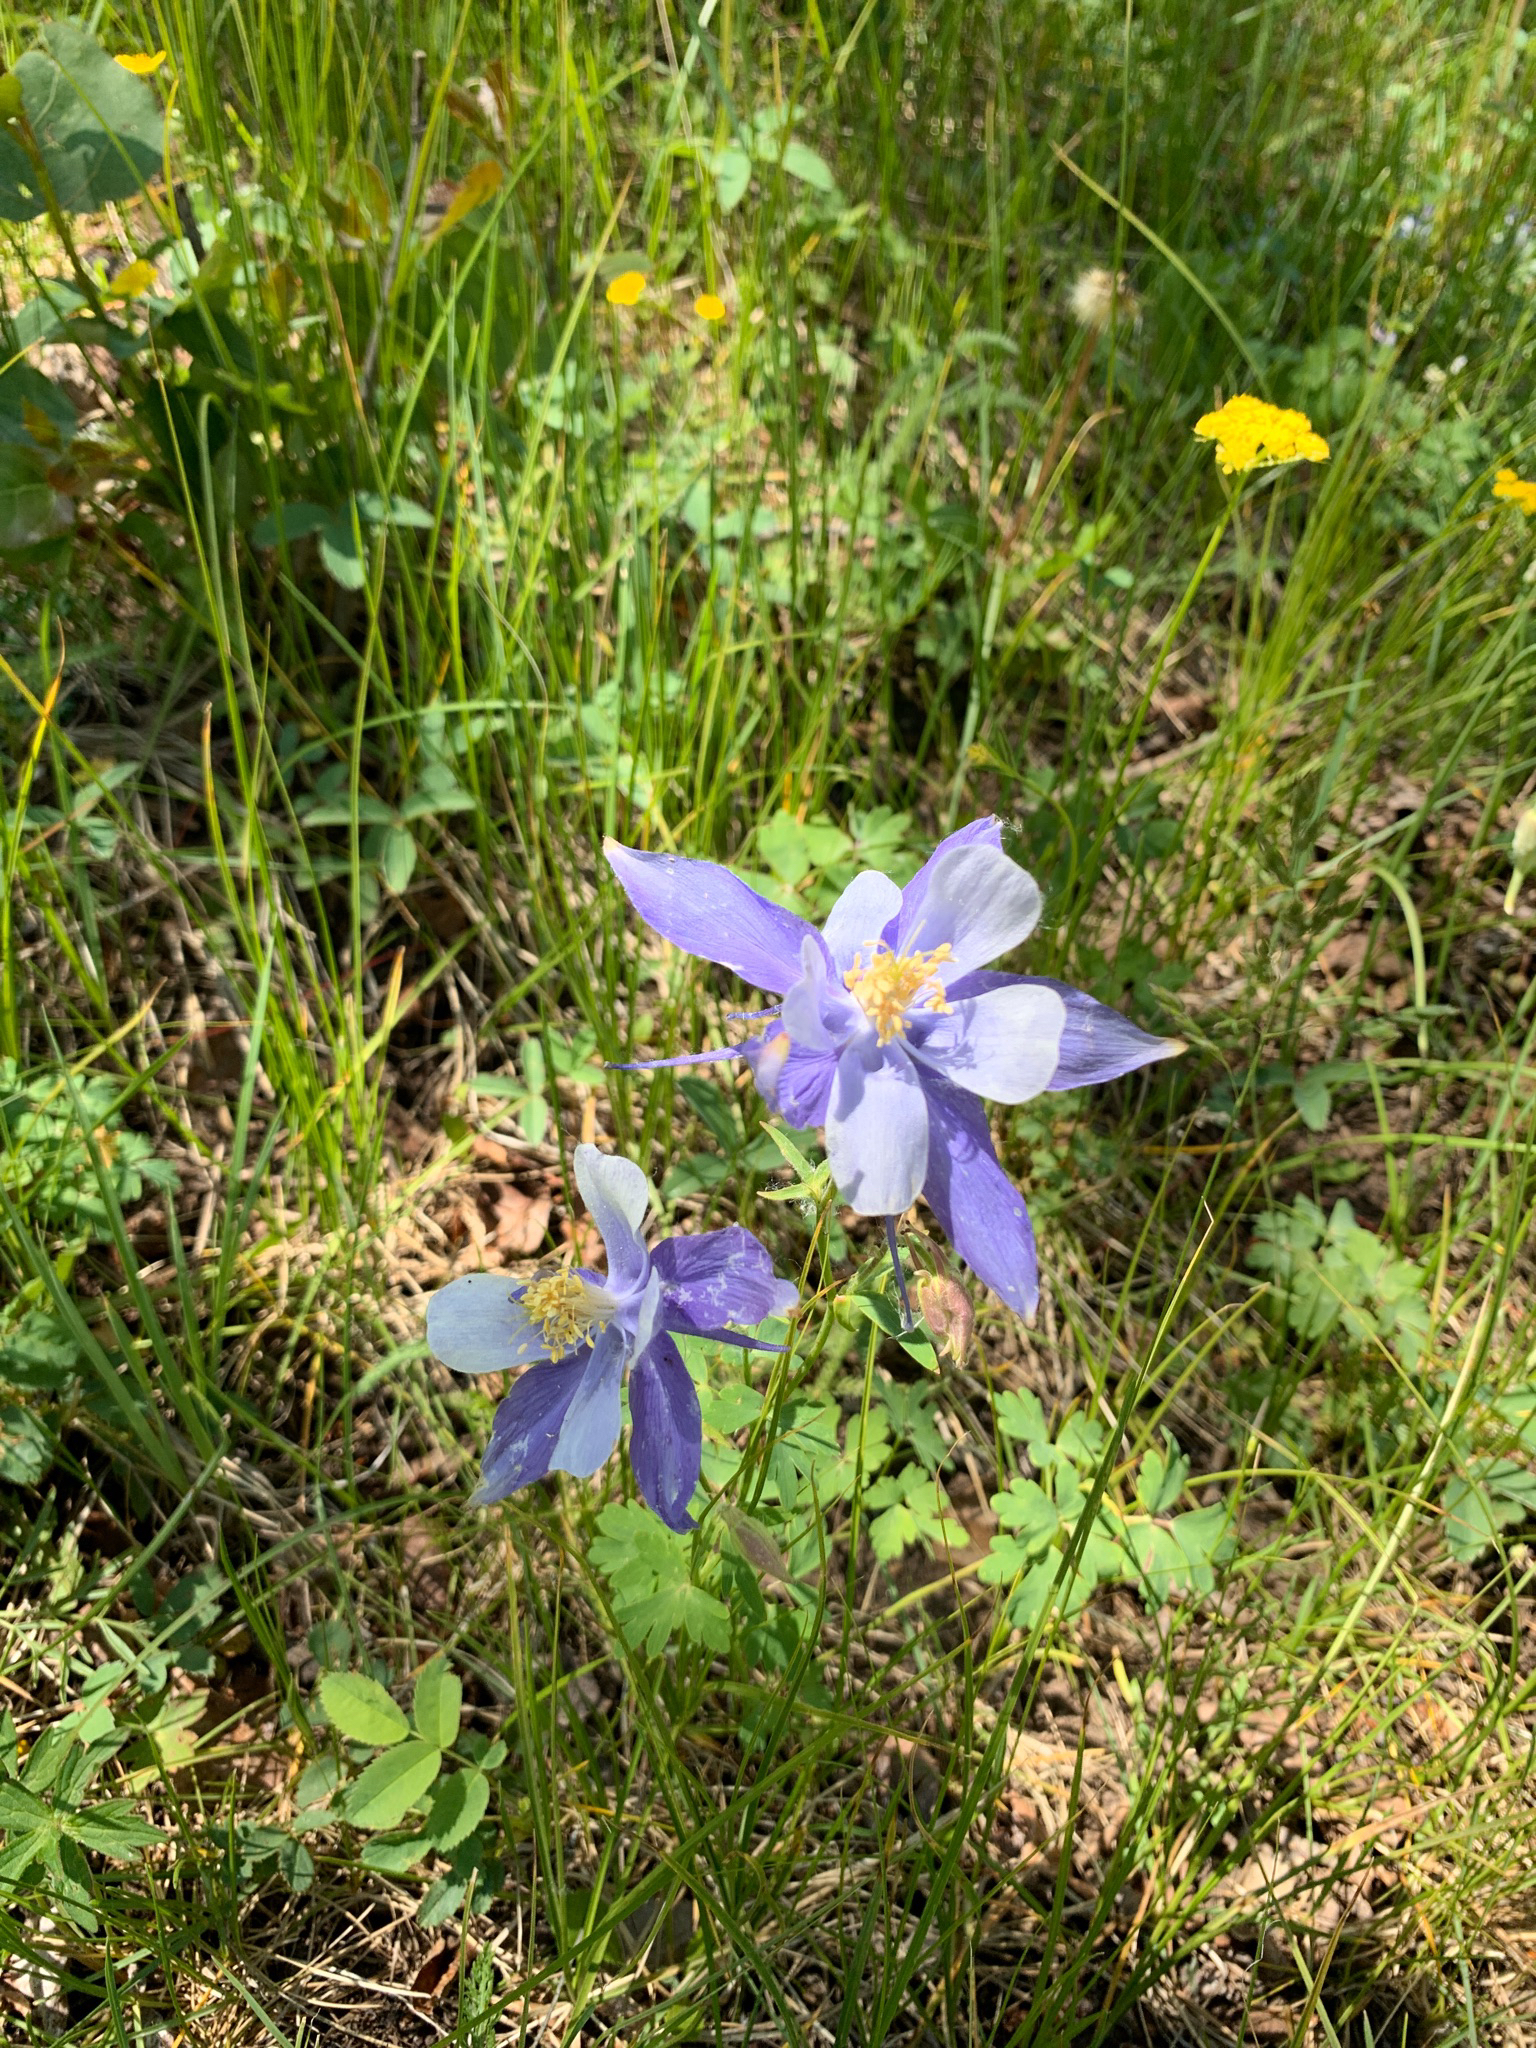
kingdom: Plantae
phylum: Tracheophyta
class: Magnoliopsida
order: Ranunculales
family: Ranunculaceae
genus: Aquilegia
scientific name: Aquilegia coerulea
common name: Rocky mountain columbine
